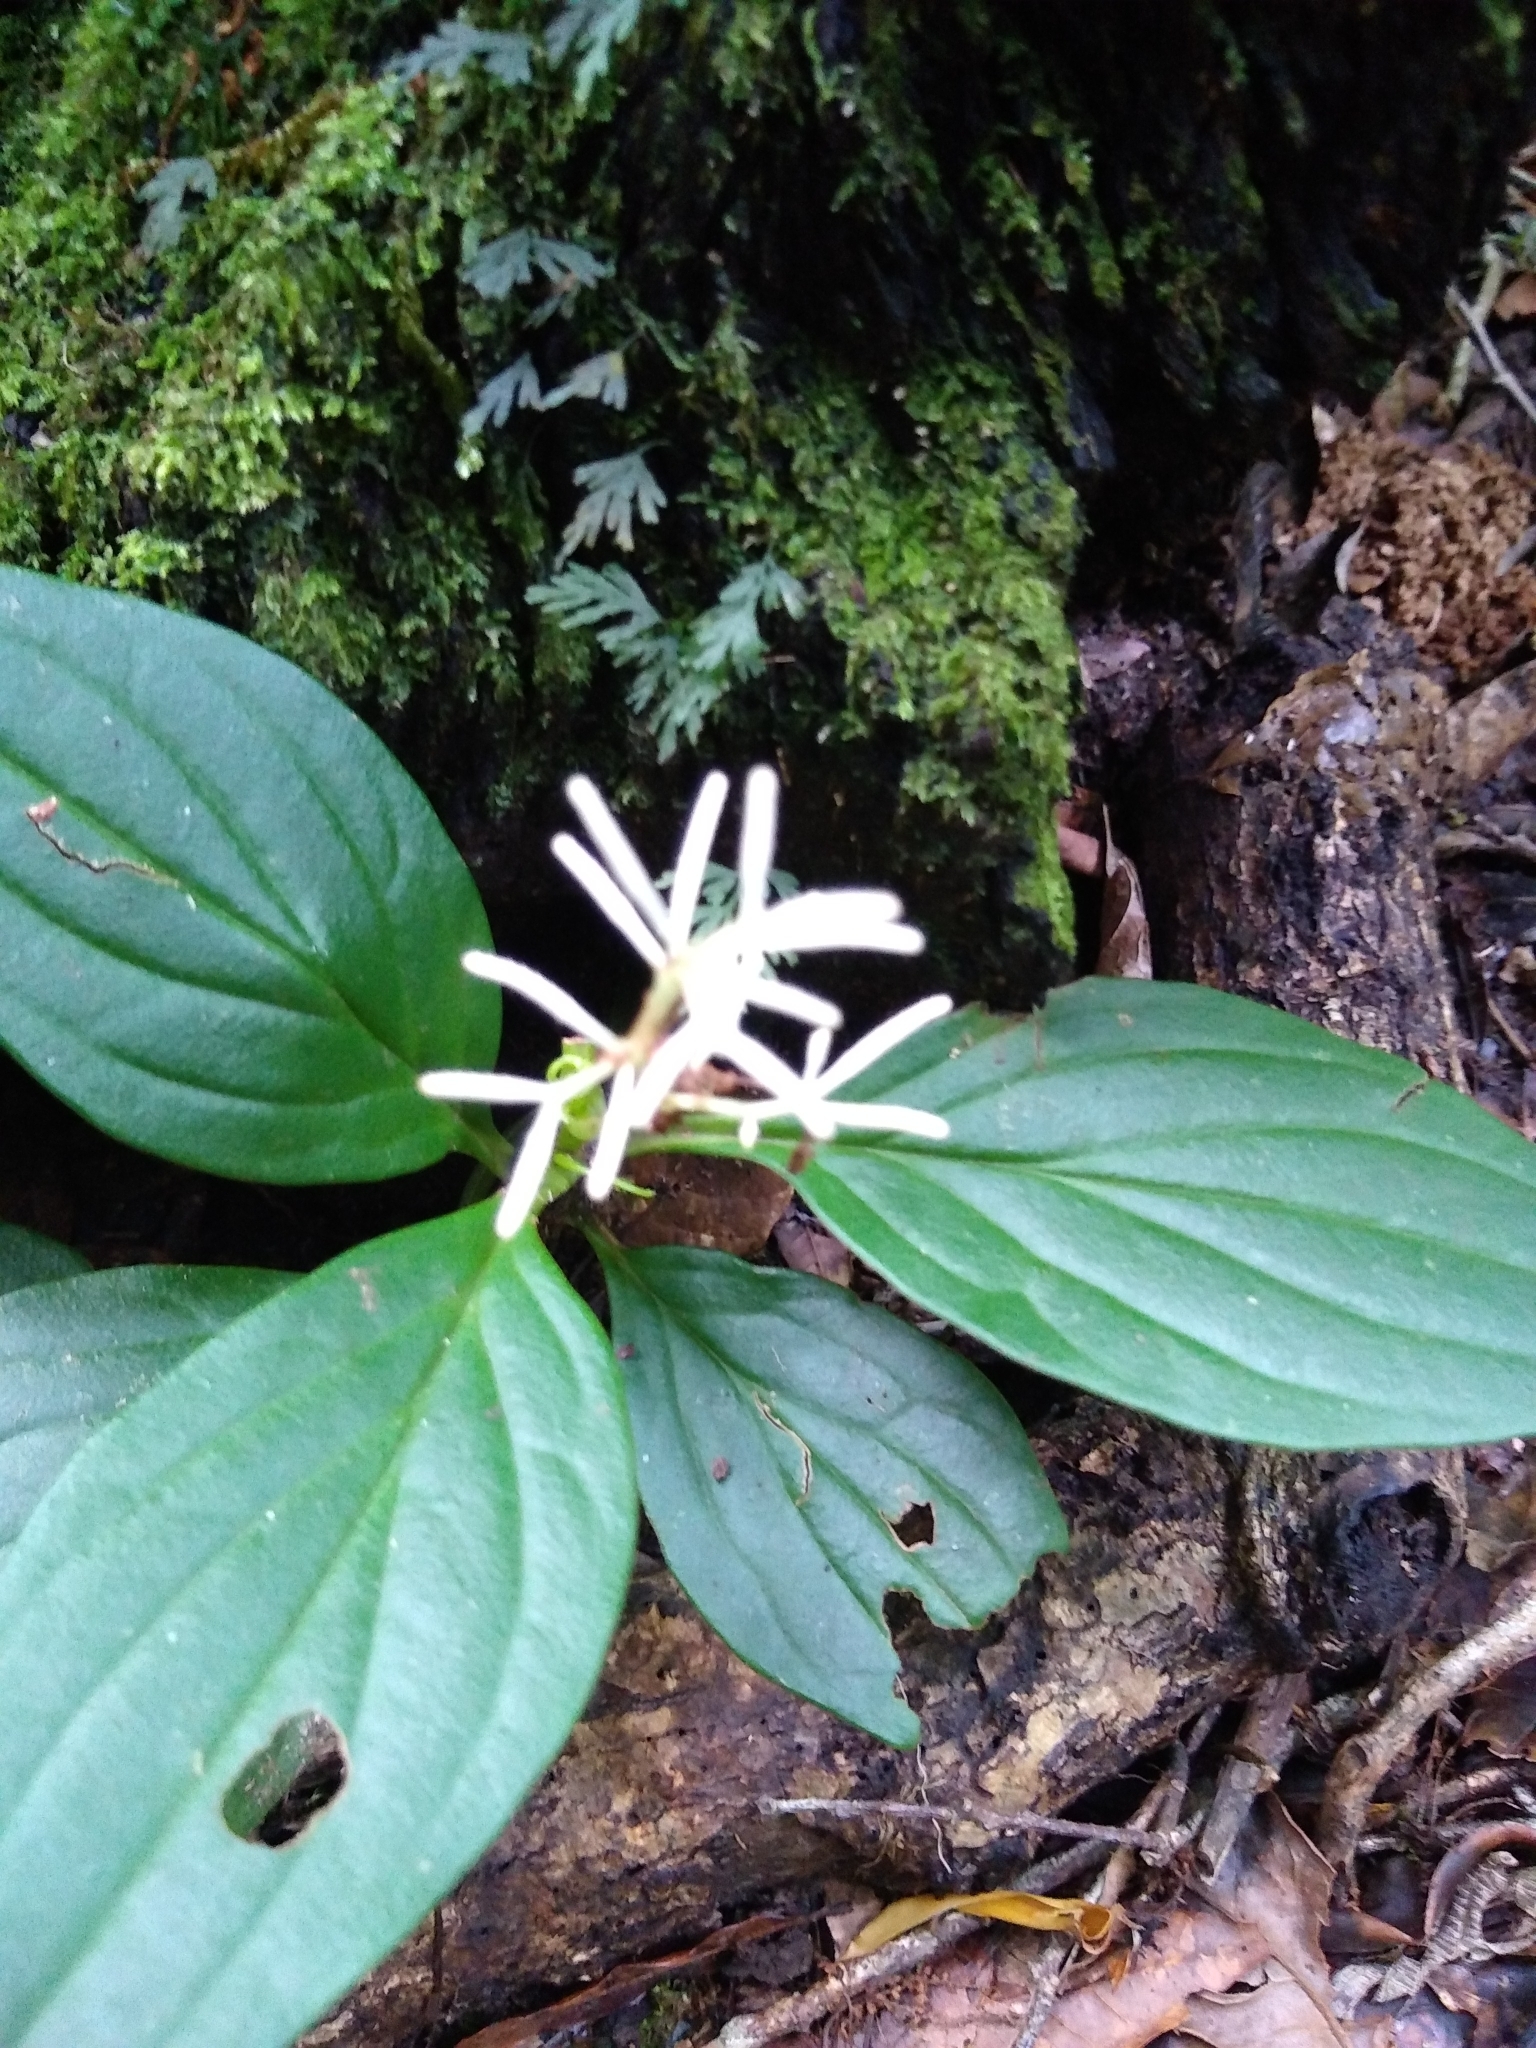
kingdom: Plantae
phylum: Tracheophyta
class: Magnoliopsida
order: Piperales
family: Piperaceae
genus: Peperomia
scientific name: Peperomia poasana
